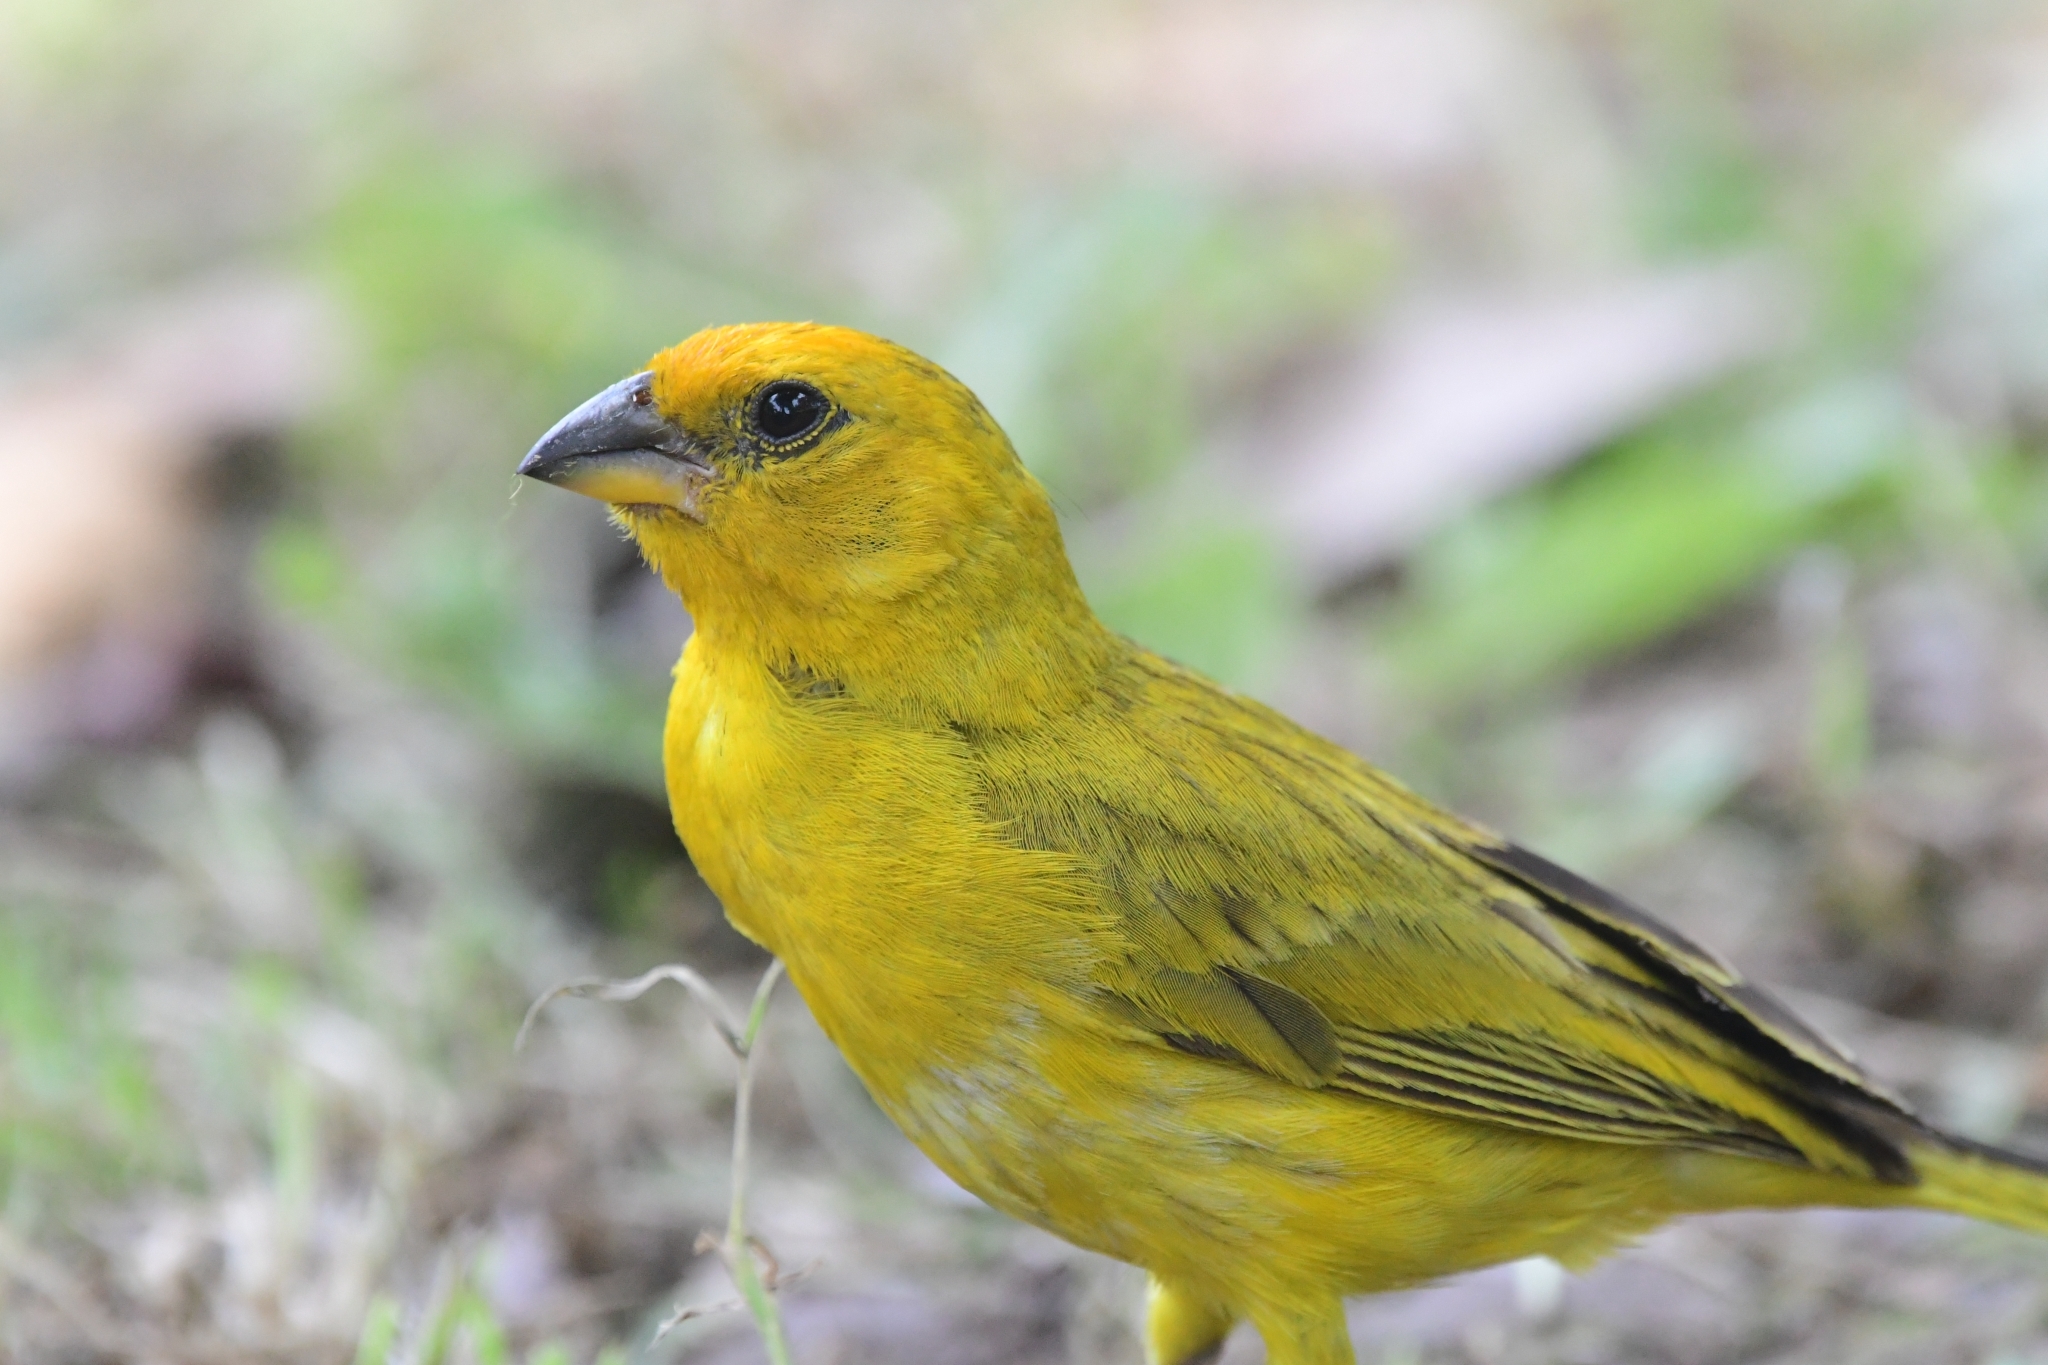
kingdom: Animalia
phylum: Chordata
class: Aves
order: Passeriformes
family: Thraupidae
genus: Sicalis
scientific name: Sicalis flaveola
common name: Saffron finch
